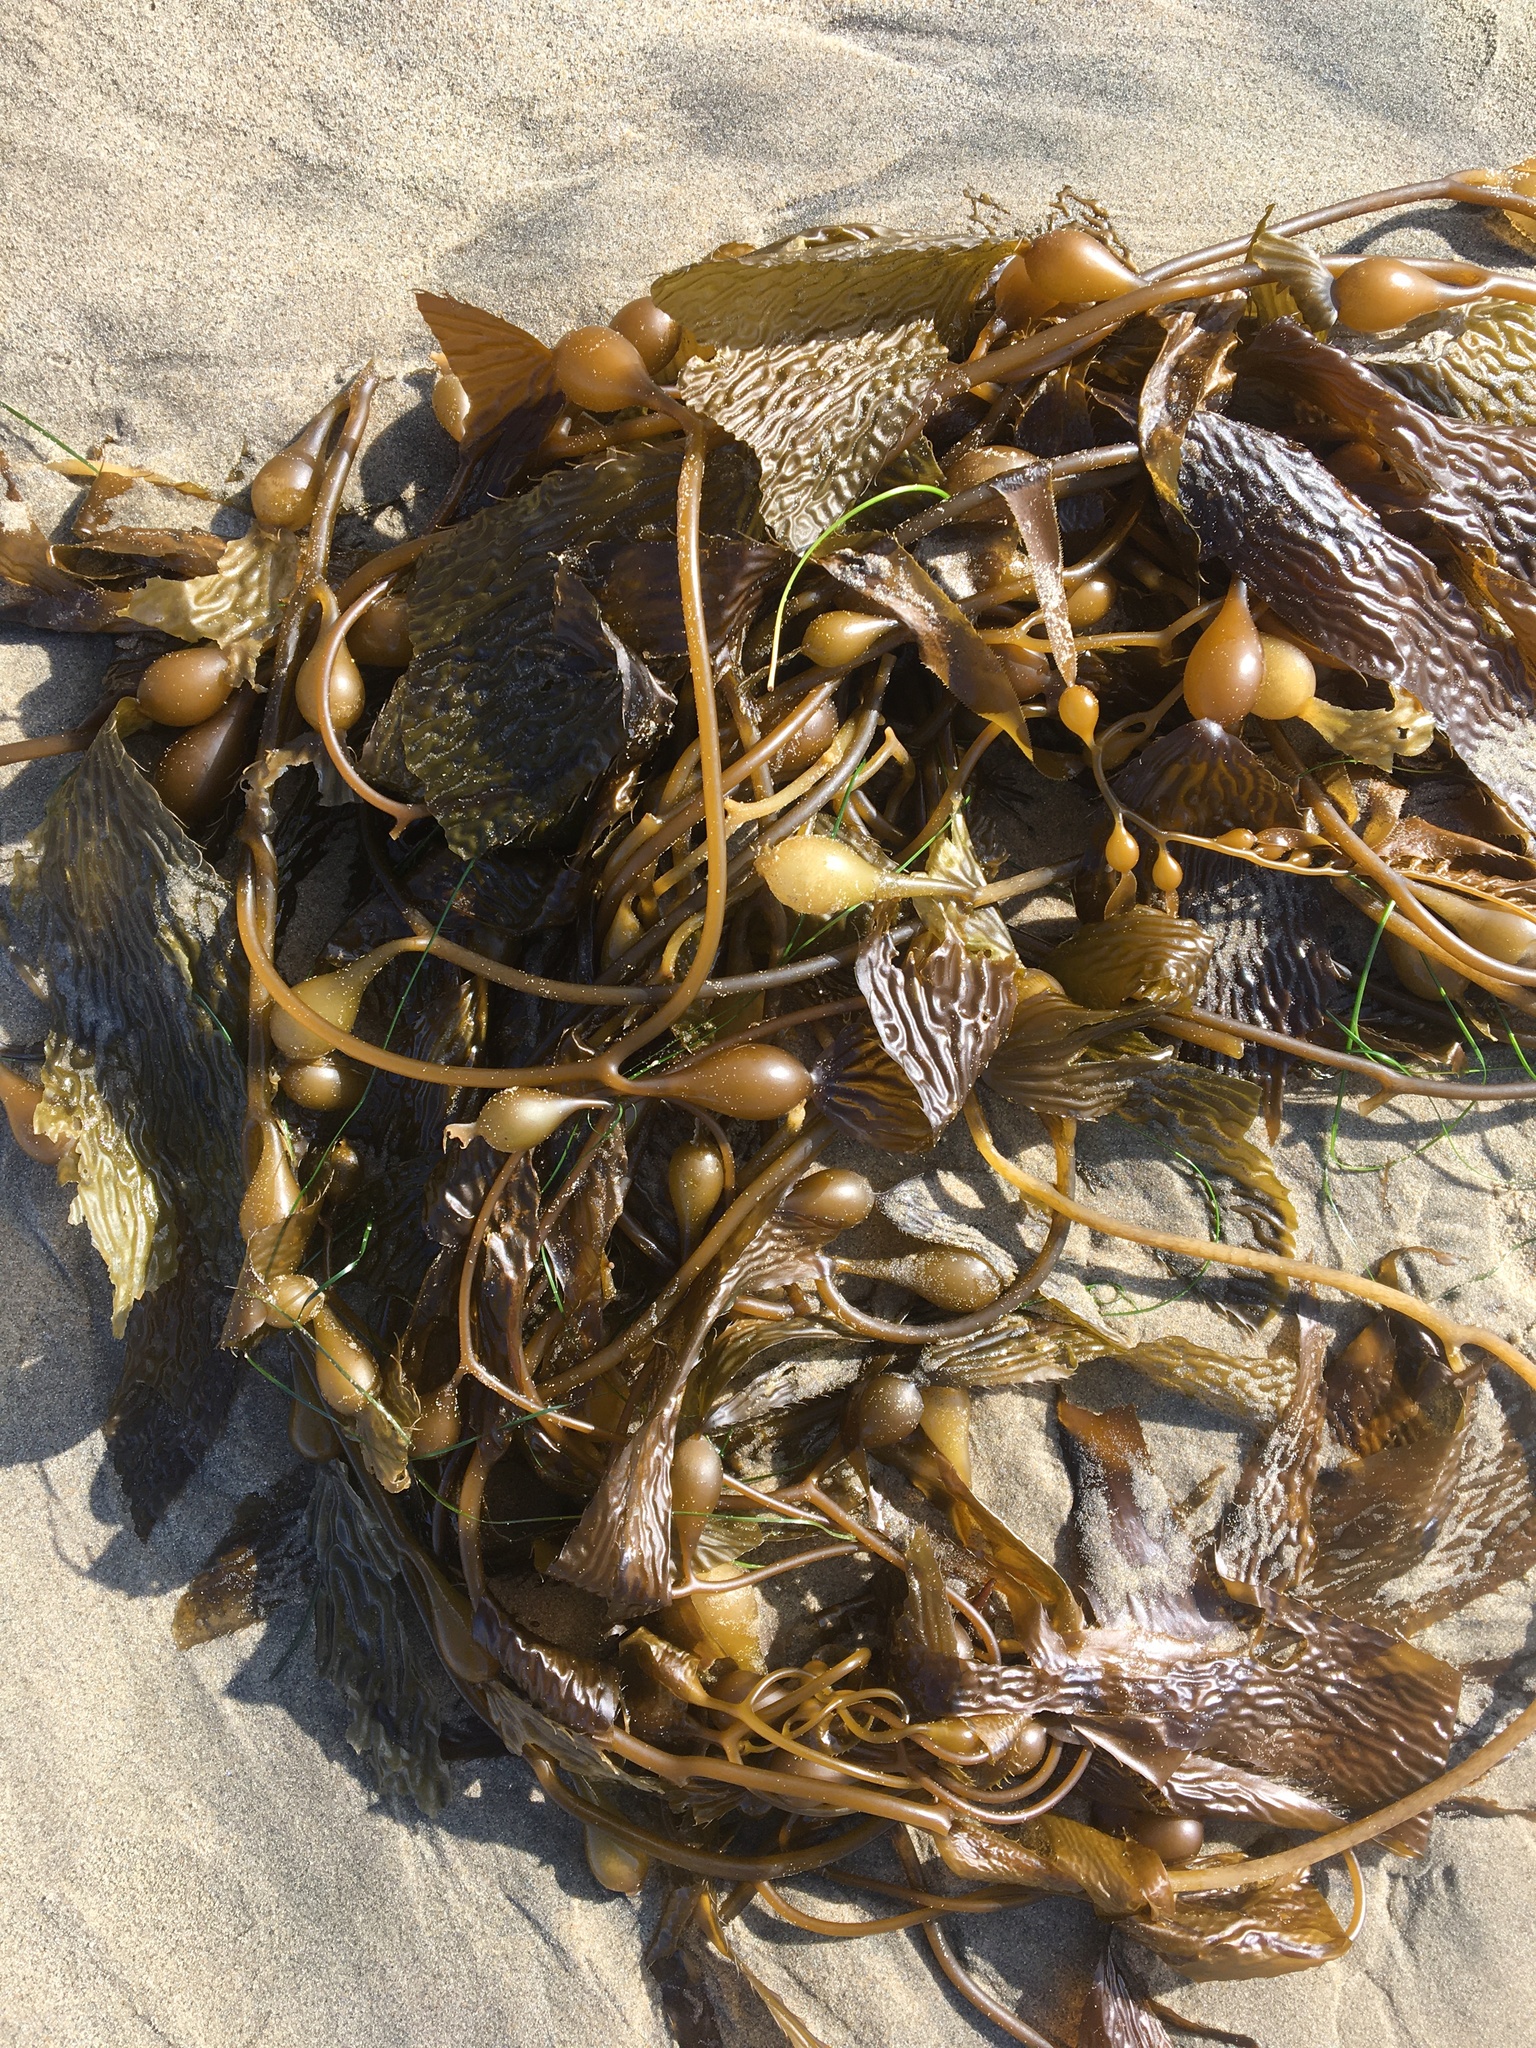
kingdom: Chromista
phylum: Ochrophyta
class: Phaeophyceae
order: Laminariales
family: Laminariaceae
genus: Macrocystis
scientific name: Macrocystis pyrifera
